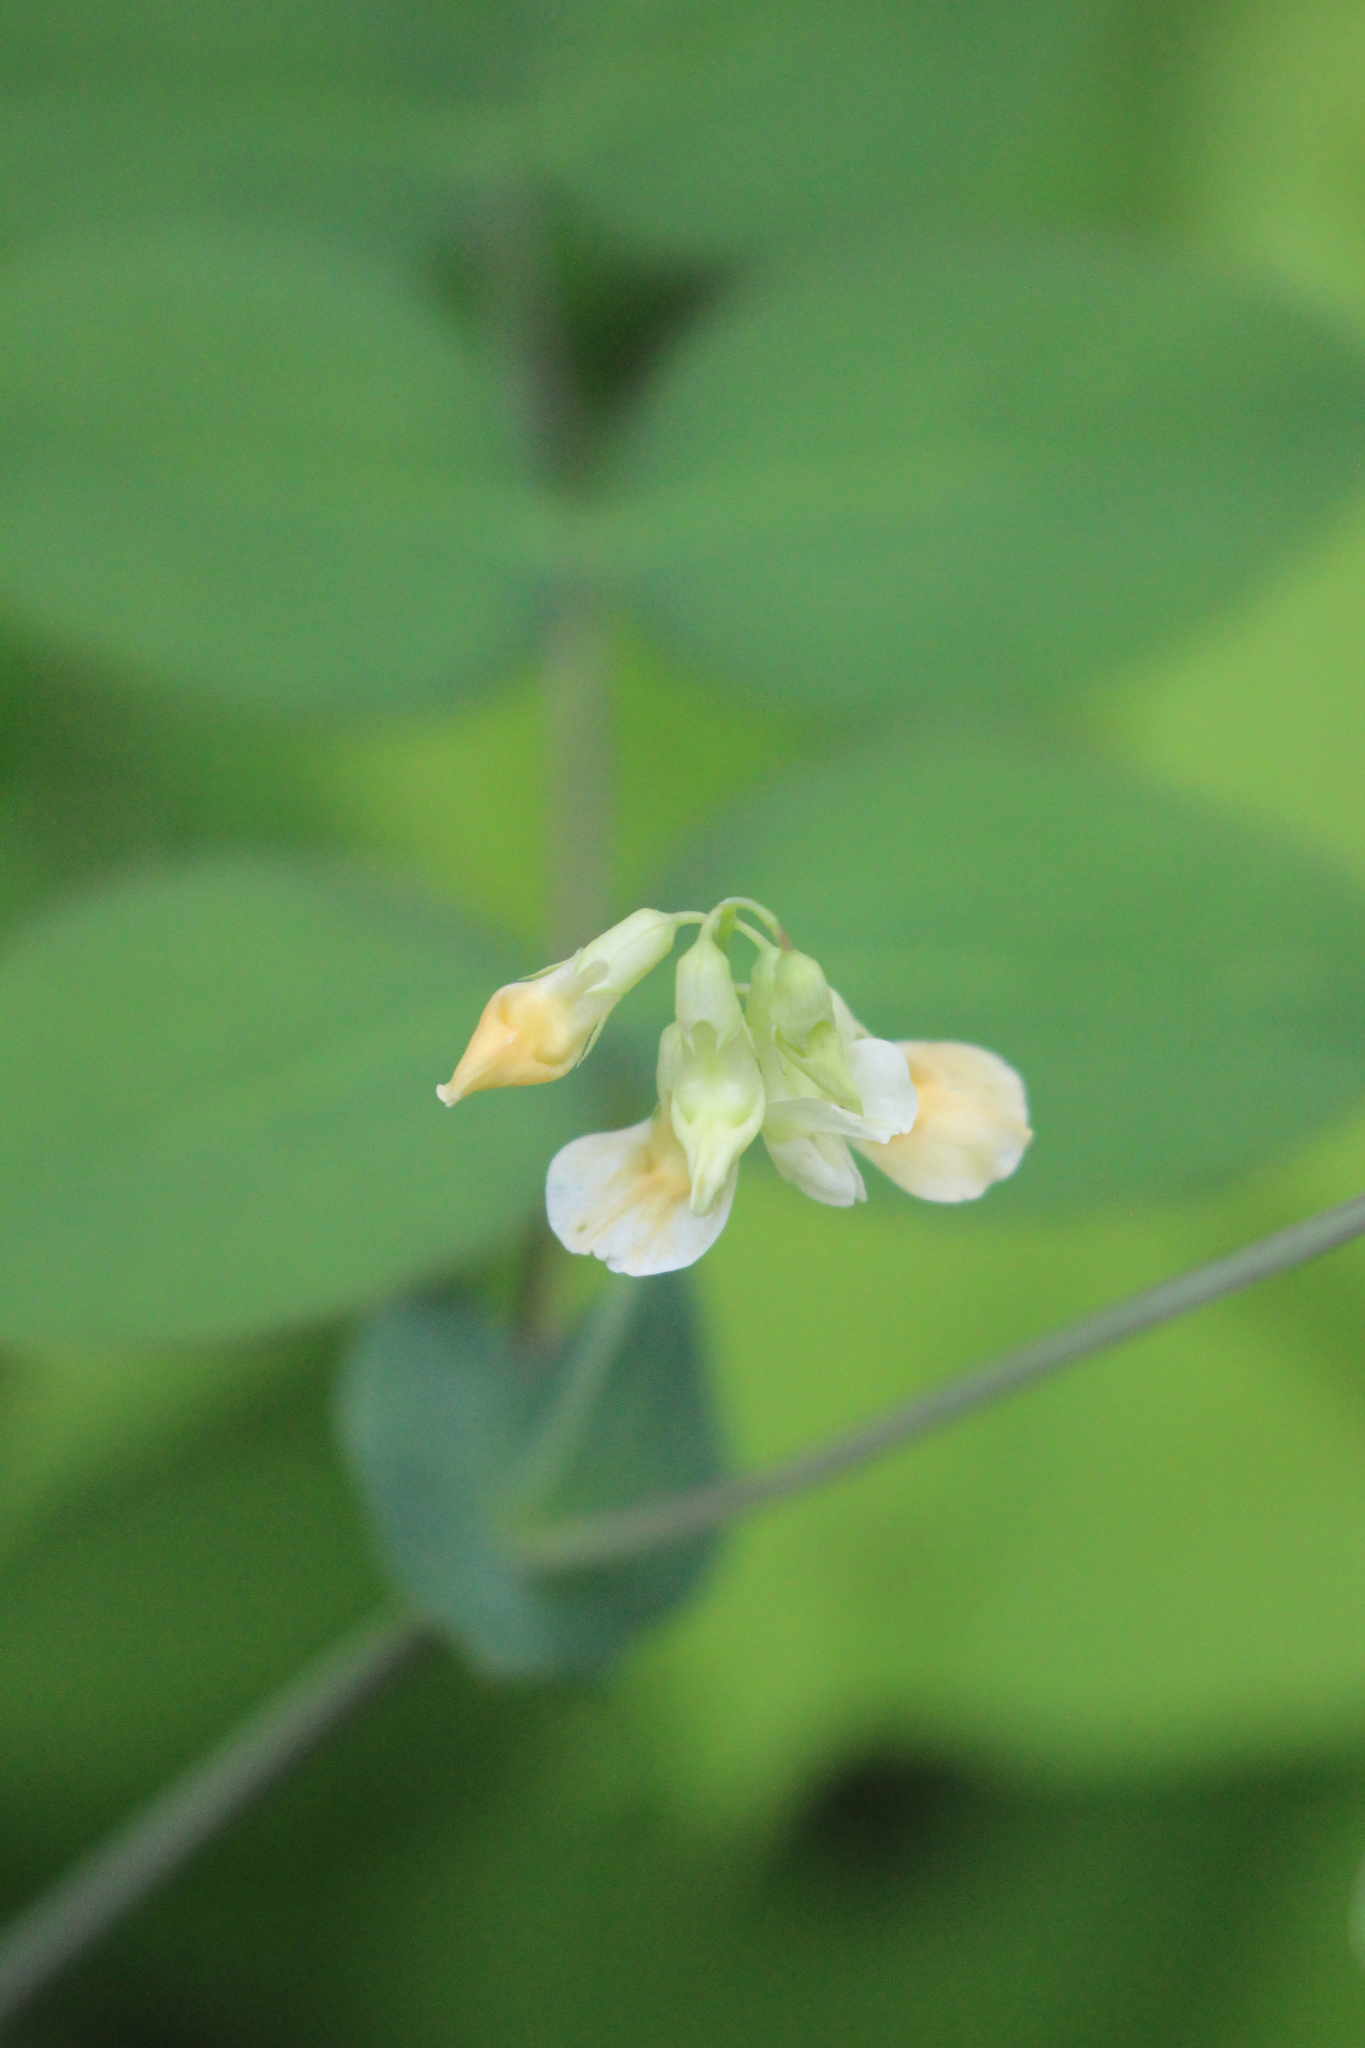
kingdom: Plantae
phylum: Tracheophyta
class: Magnoliopsida
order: Fabales
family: Fabaceae
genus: Lathyrus
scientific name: Lathyrus ochroleucus
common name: Pale vetchling
